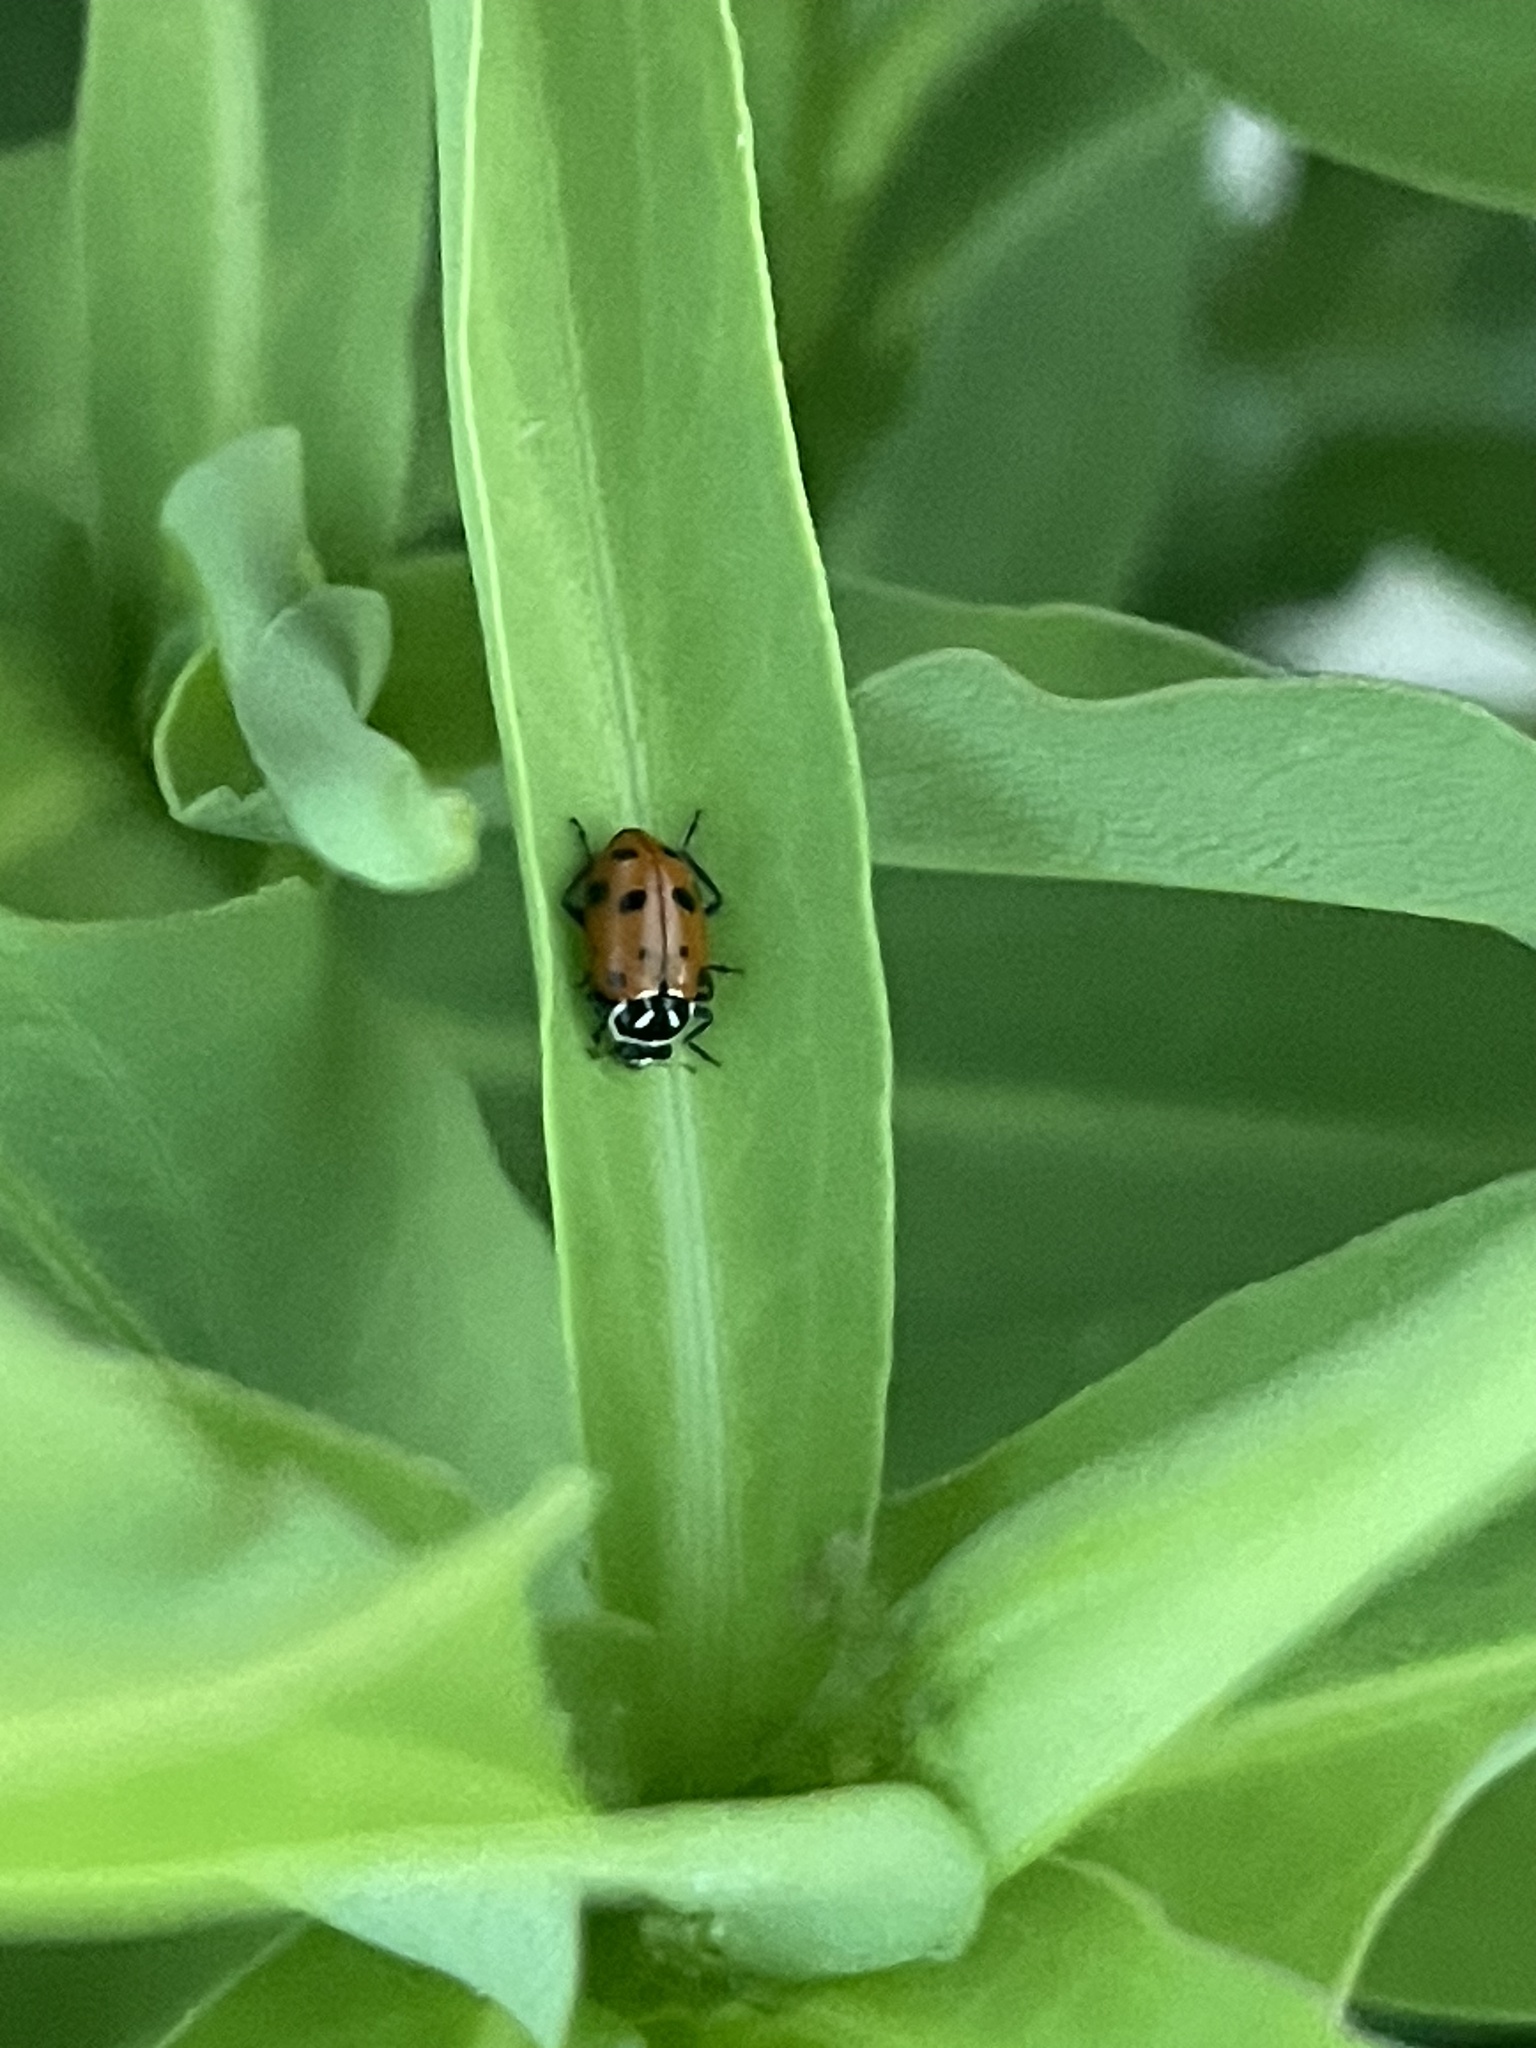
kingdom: Animalia
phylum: Arthropoda
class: Insecta
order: Coleoptera
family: Coccinellidae
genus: Hippodamia
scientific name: Hippodamia convergens
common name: Convergent lady beetle
